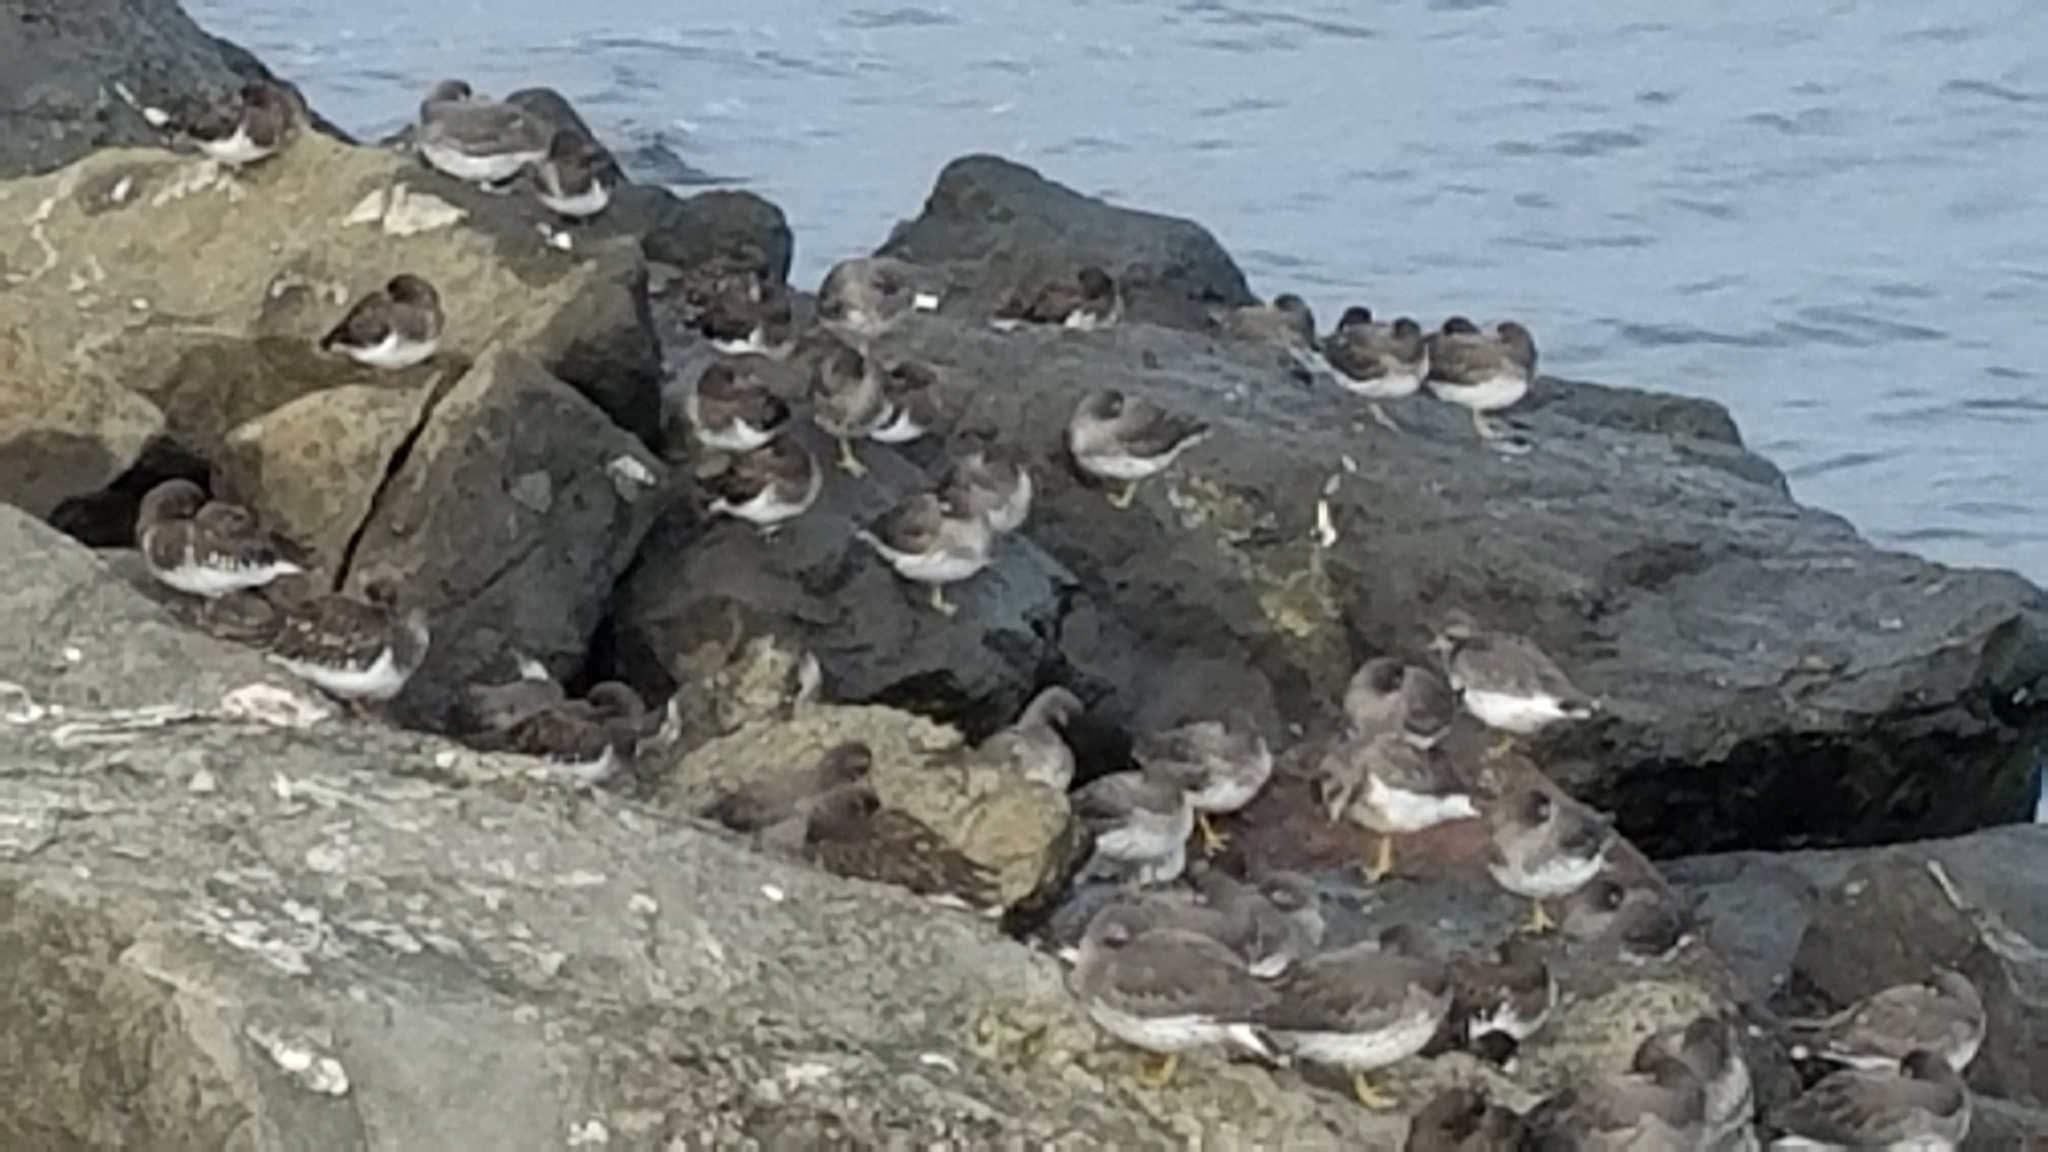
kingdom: Animalia
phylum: Chordata
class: Aves
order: Charadriiformes
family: Scolopacidae
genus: Calidris
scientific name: Calidris virgata
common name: Surfbird
